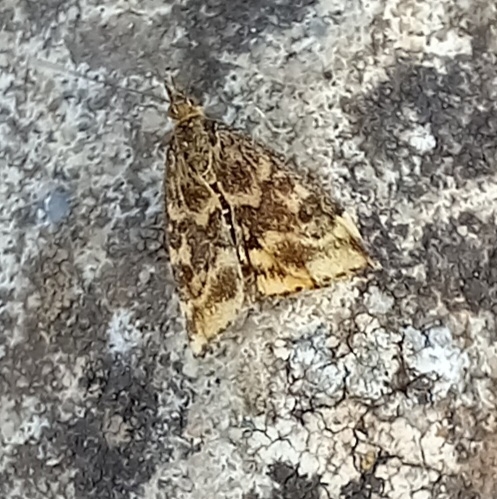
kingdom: Animalia
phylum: Arthropoda
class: Insecta
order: Lepidoptera
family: Crambidae
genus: Pyrausta
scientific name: Pyrausta despicata
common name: Straw-barred pearl
